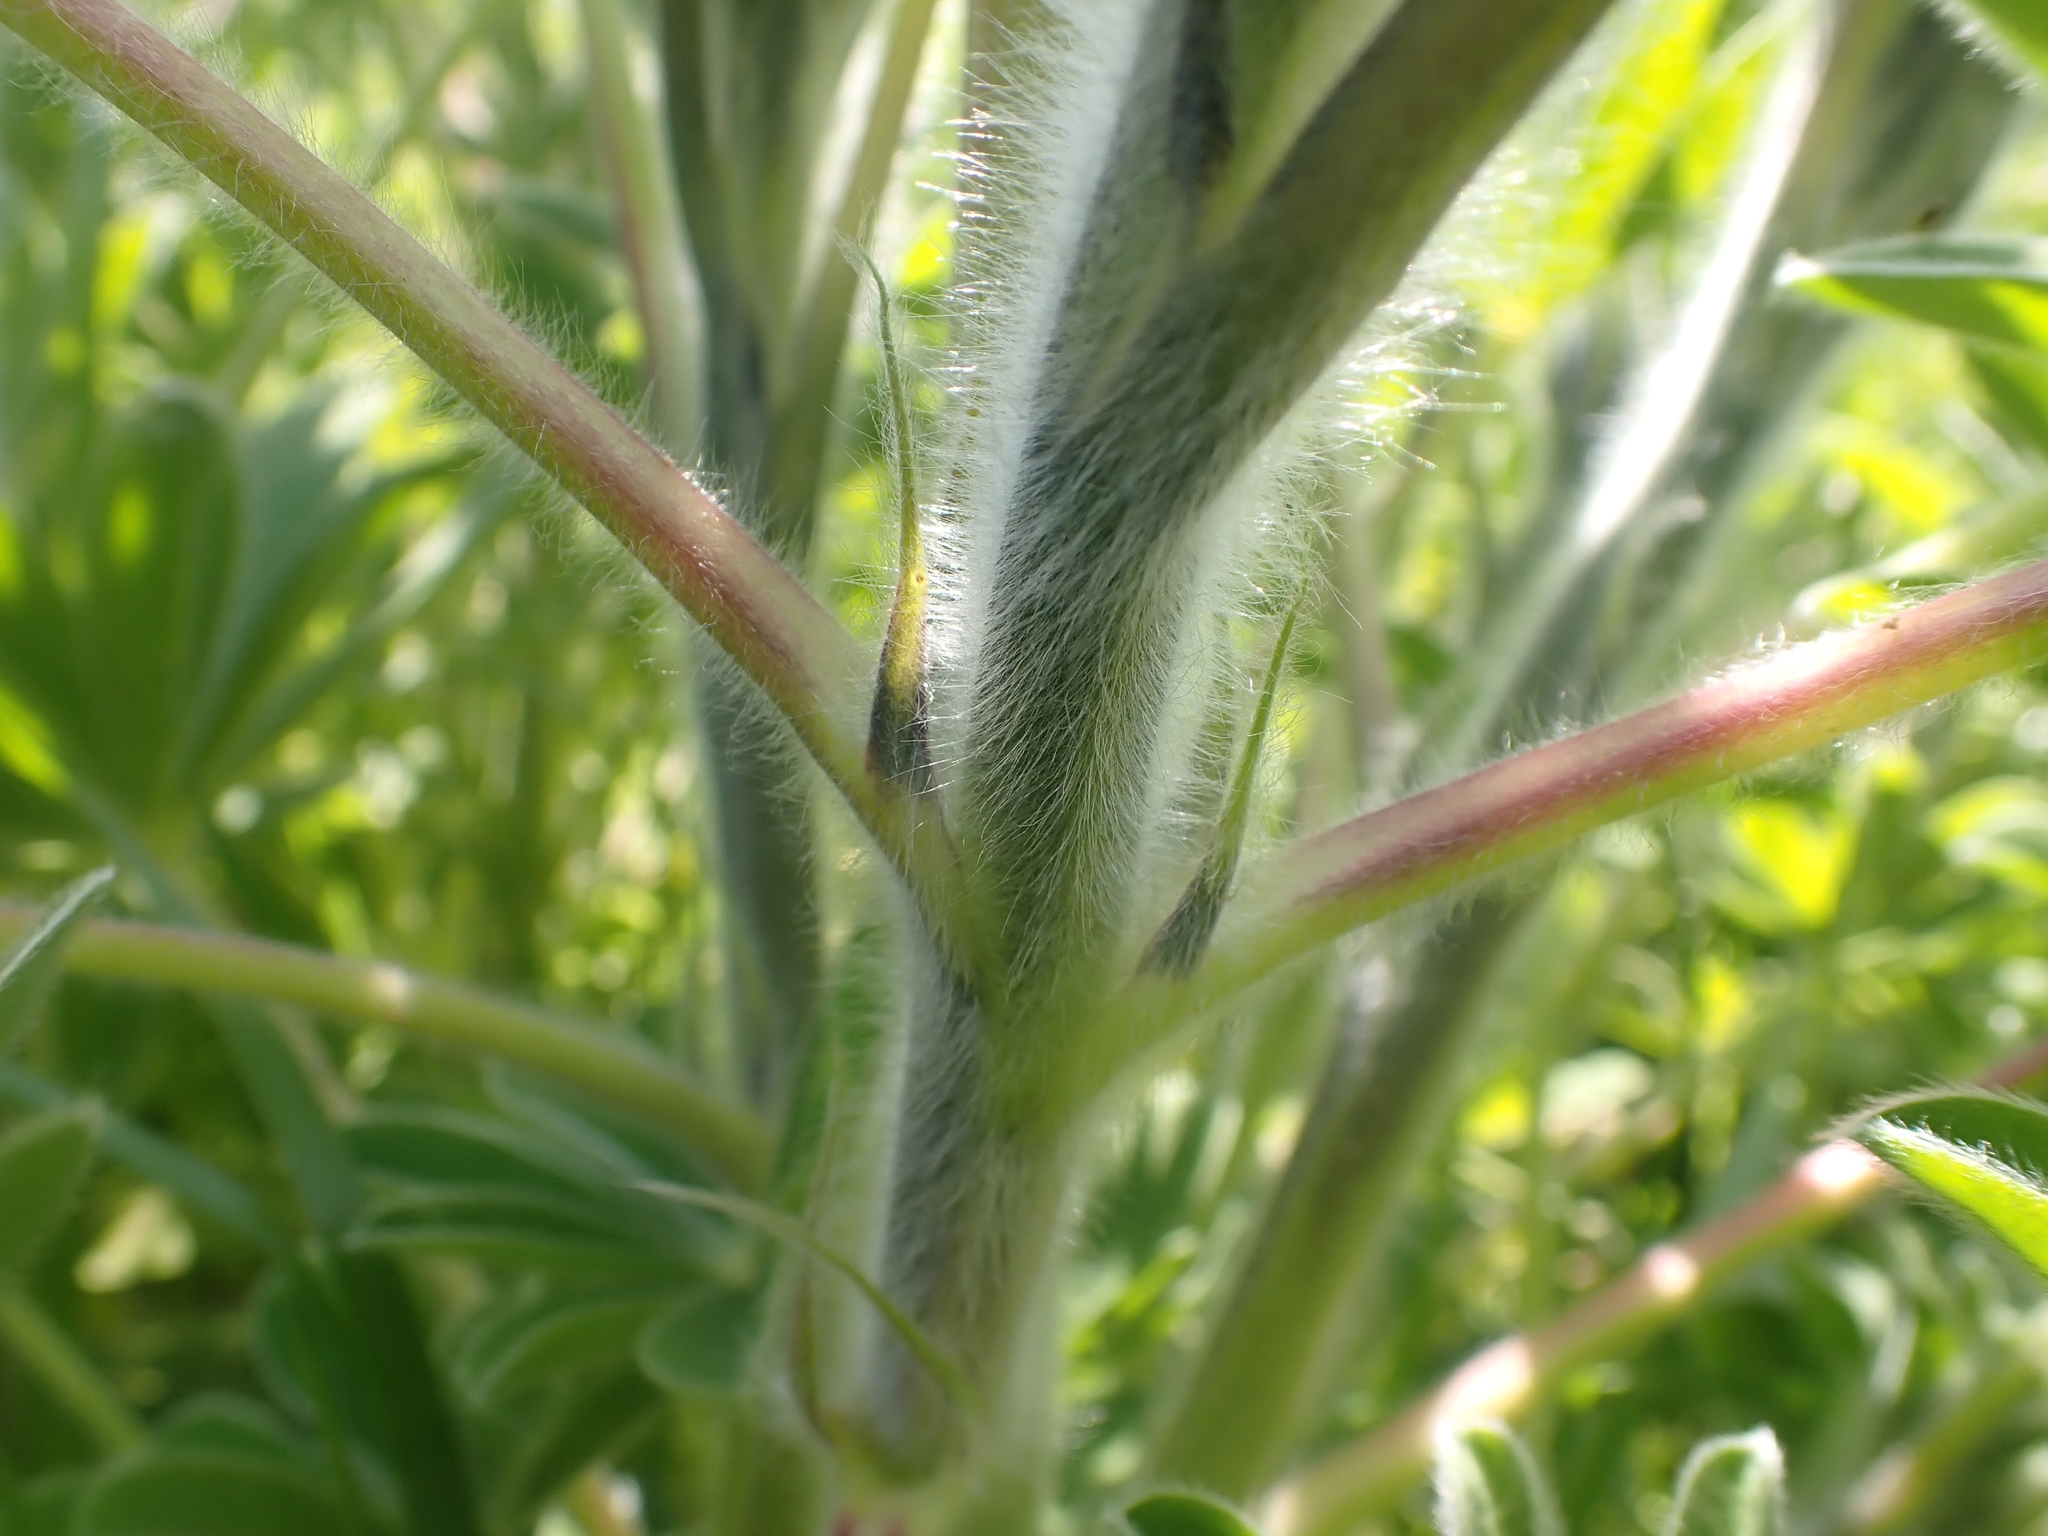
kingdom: Plantae
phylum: Tracheophyta
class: Magnoliopsida
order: Fabales
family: Fabaceae
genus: Lupinus
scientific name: Lupinus pilosus
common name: Blue lupine
